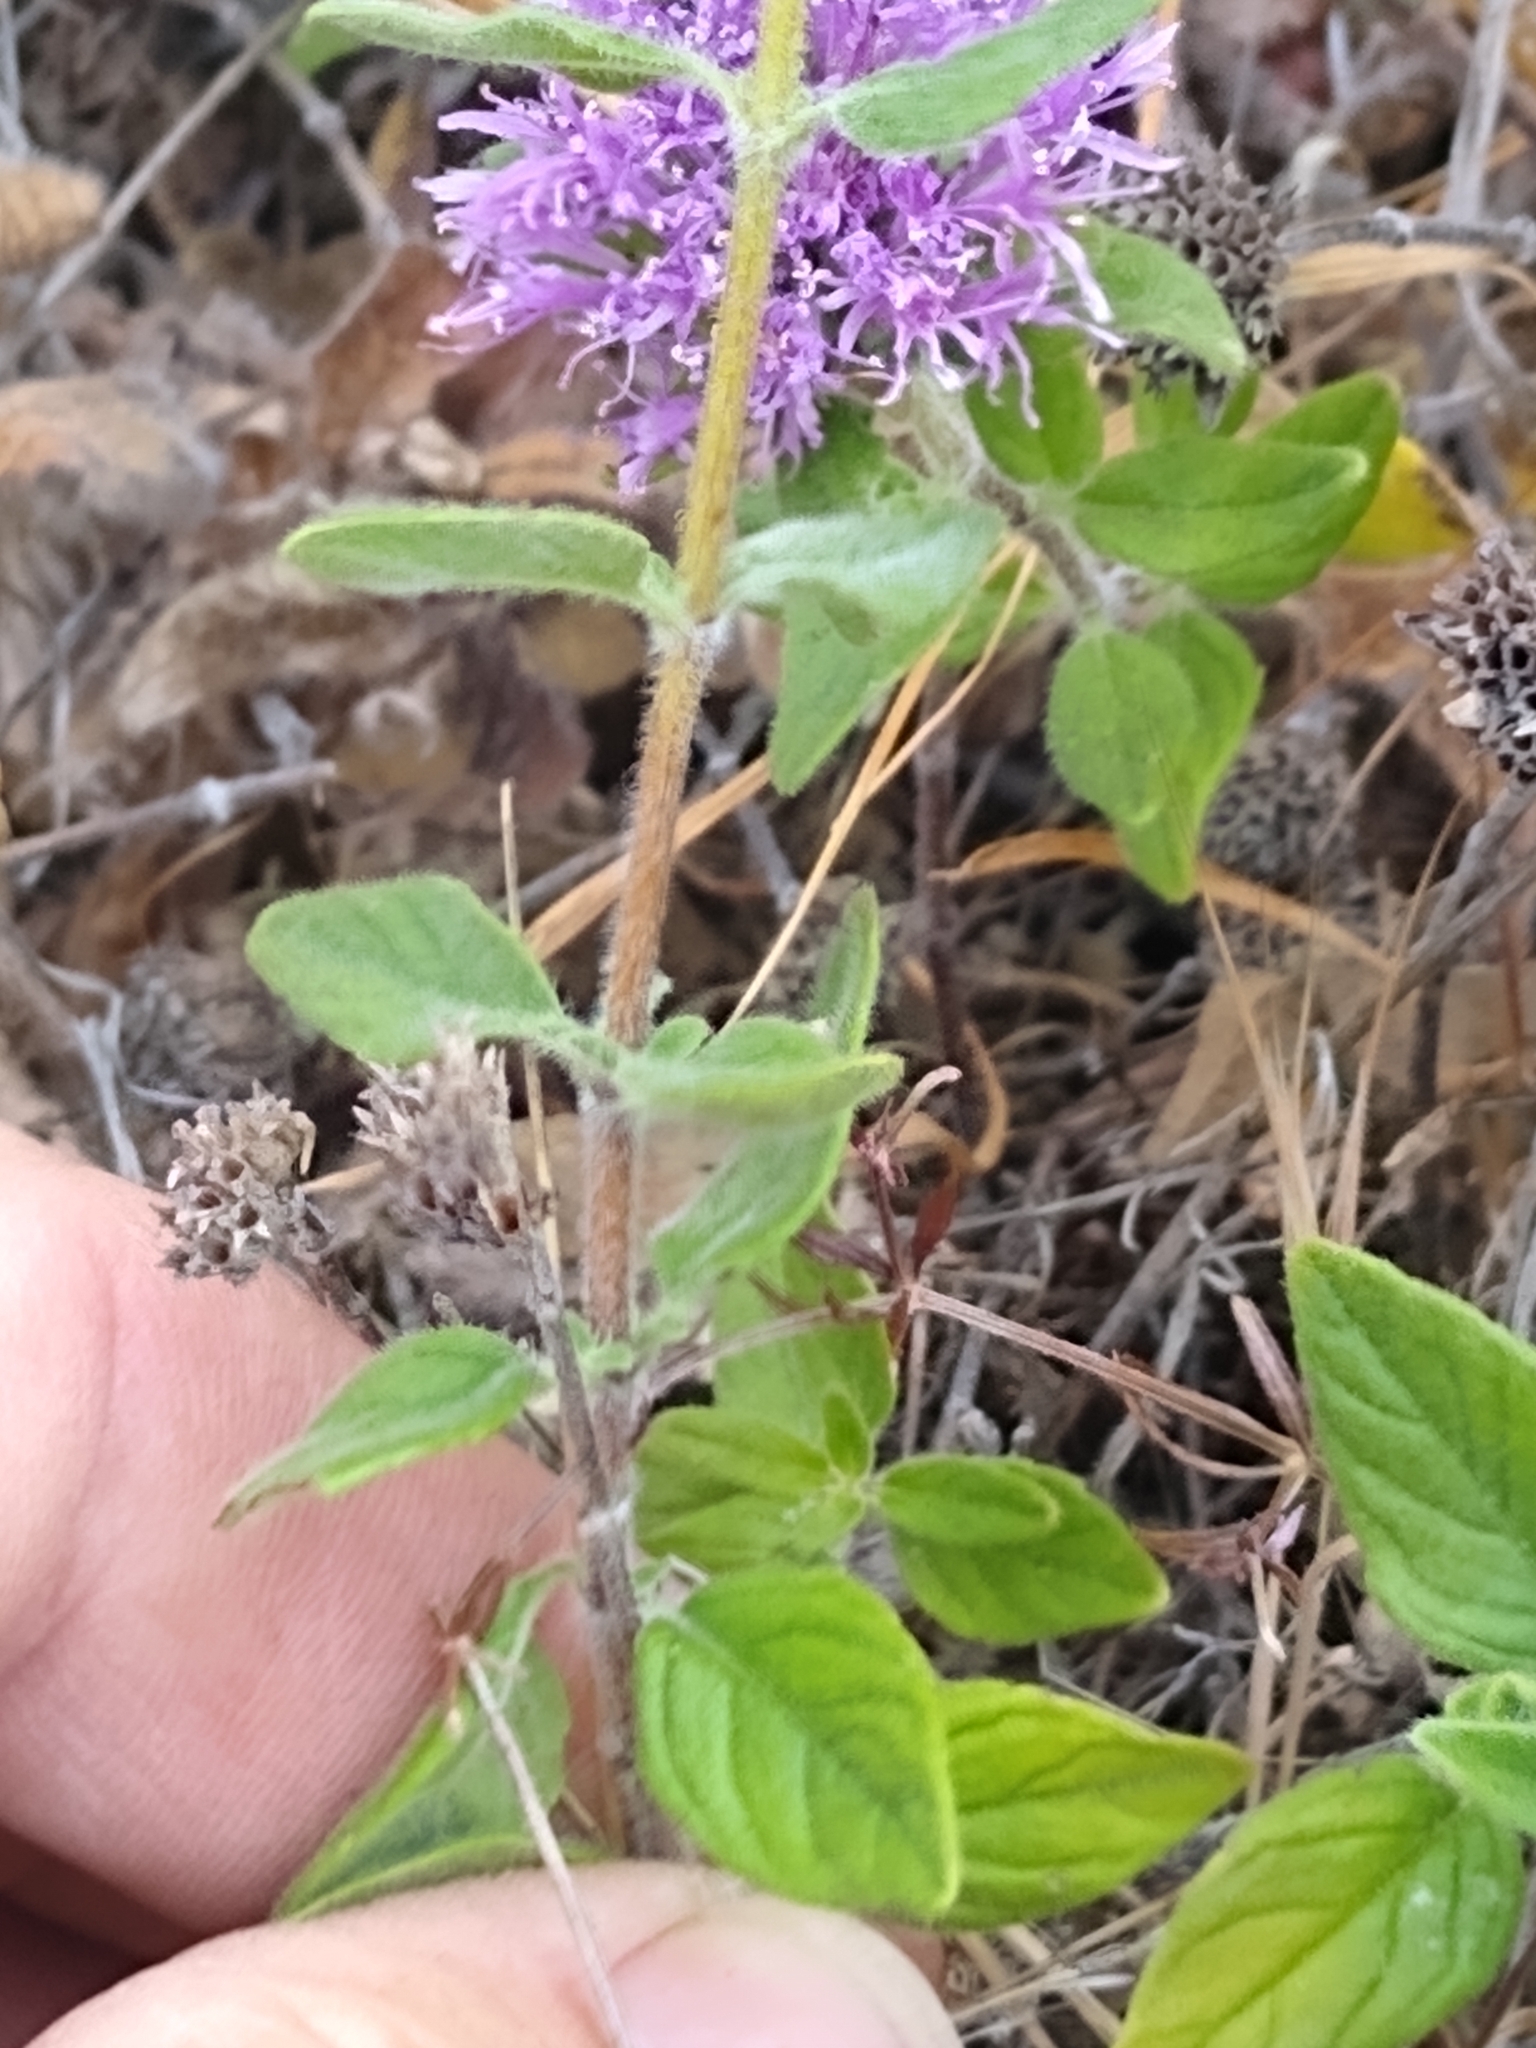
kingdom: Plantae
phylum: Tracheophyta
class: Magnoliopsida
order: Lamiales
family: Lamiaceae
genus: Monardella
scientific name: Monardella odoratissima
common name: Pacific monardella
